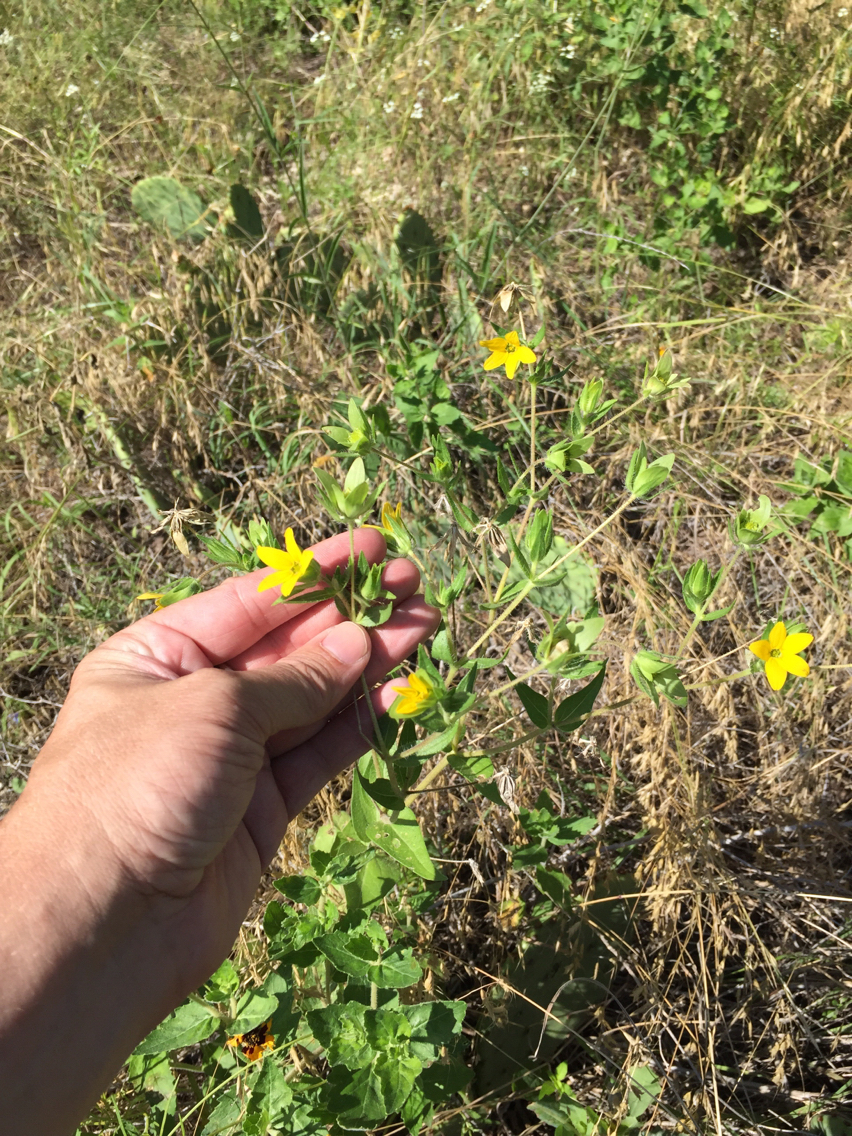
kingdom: Plantae
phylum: Tracheophyta
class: Magnoliopsida
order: Asterales
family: Asteraceae
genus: Lindheimera
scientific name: Lindheimera texana
